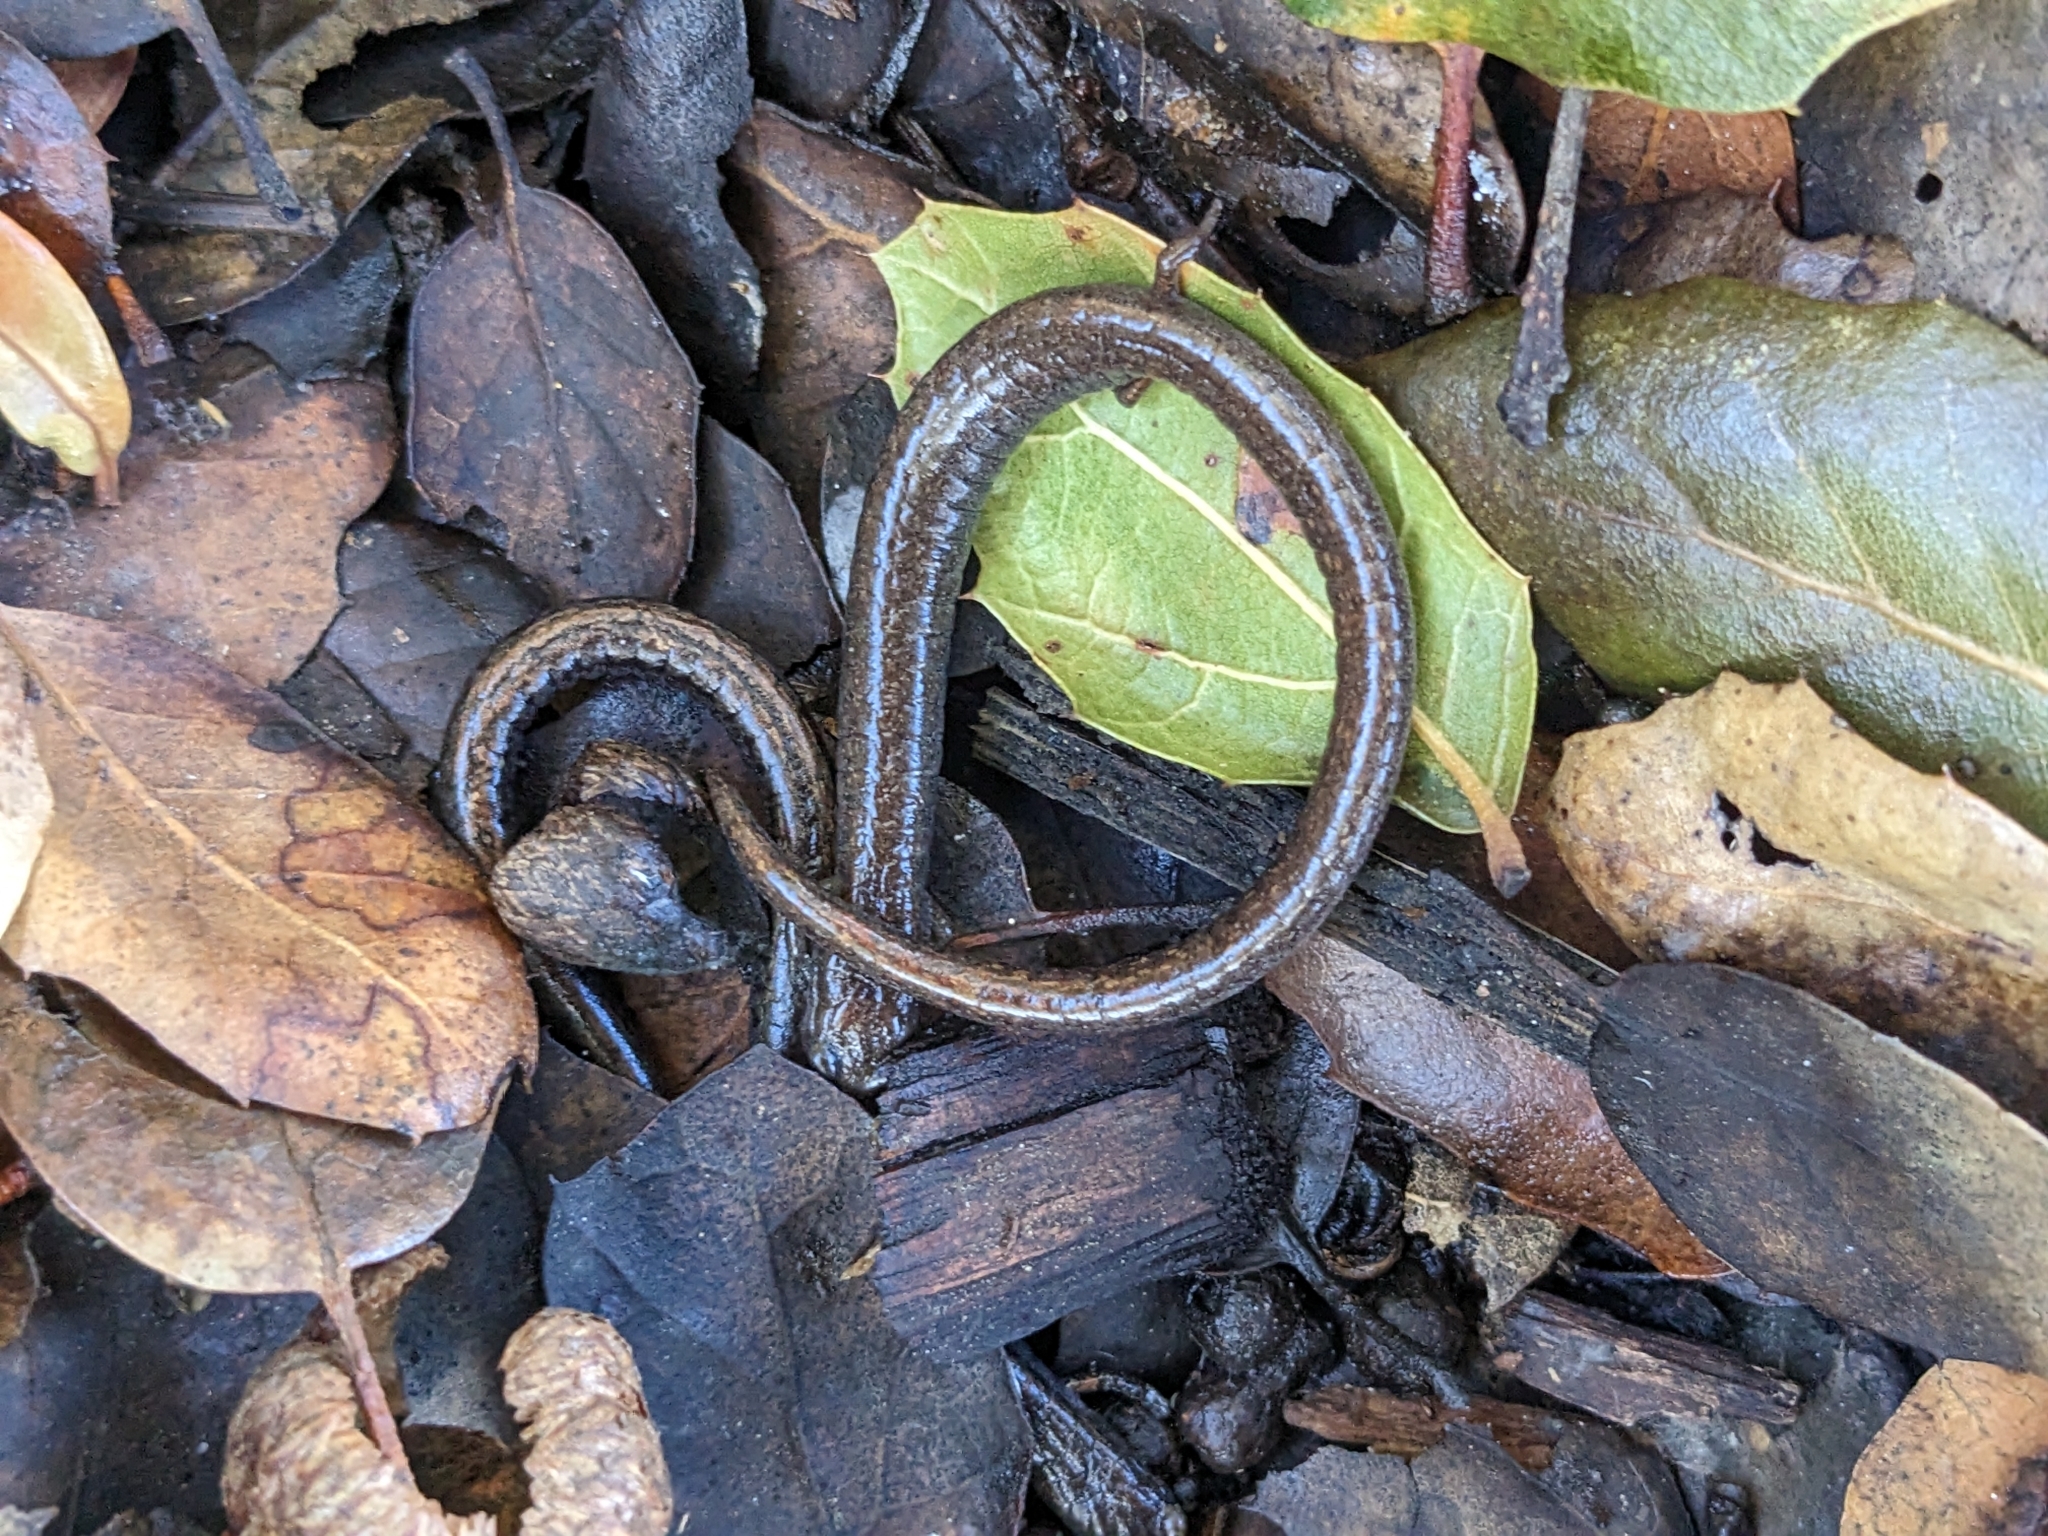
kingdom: Animalia
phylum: Chordata
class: Amphibia
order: Caudata
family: Plethodontidae
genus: Batrachoseps
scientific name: Batrachoseps attenuatus
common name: California slender salamander
